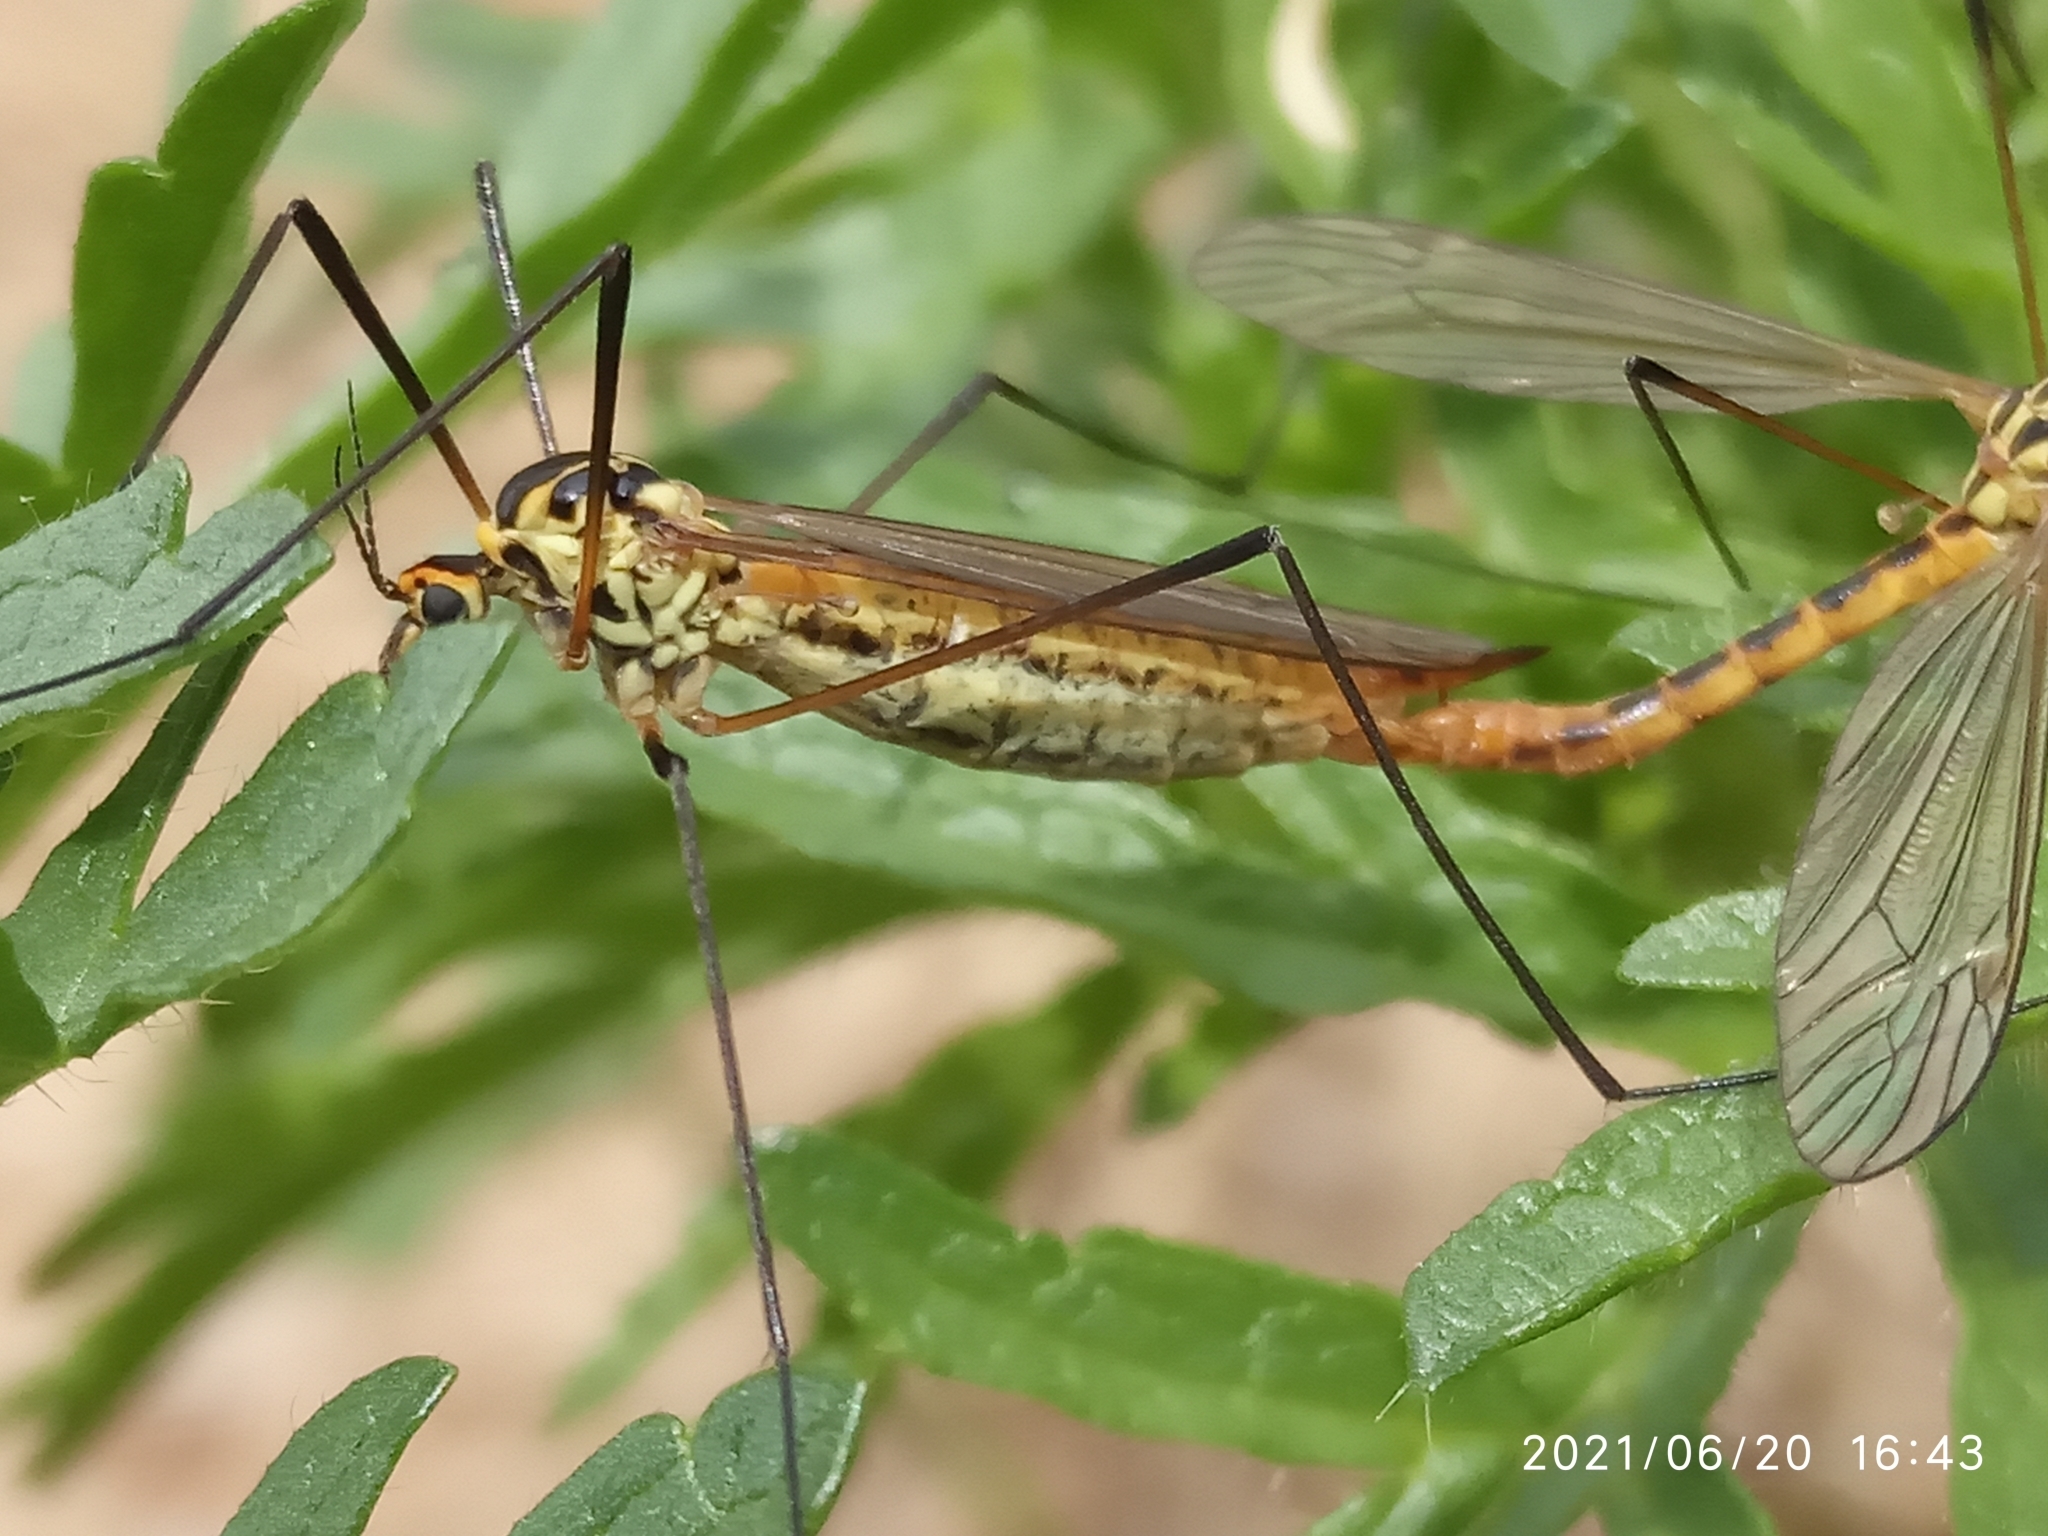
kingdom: Animalia
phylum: Arthropoda
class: Insecta
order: Diptera
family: Tipulidae
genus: Nephrotoma
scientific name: Nephrotoma flavescens
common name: Tiger cranefly
